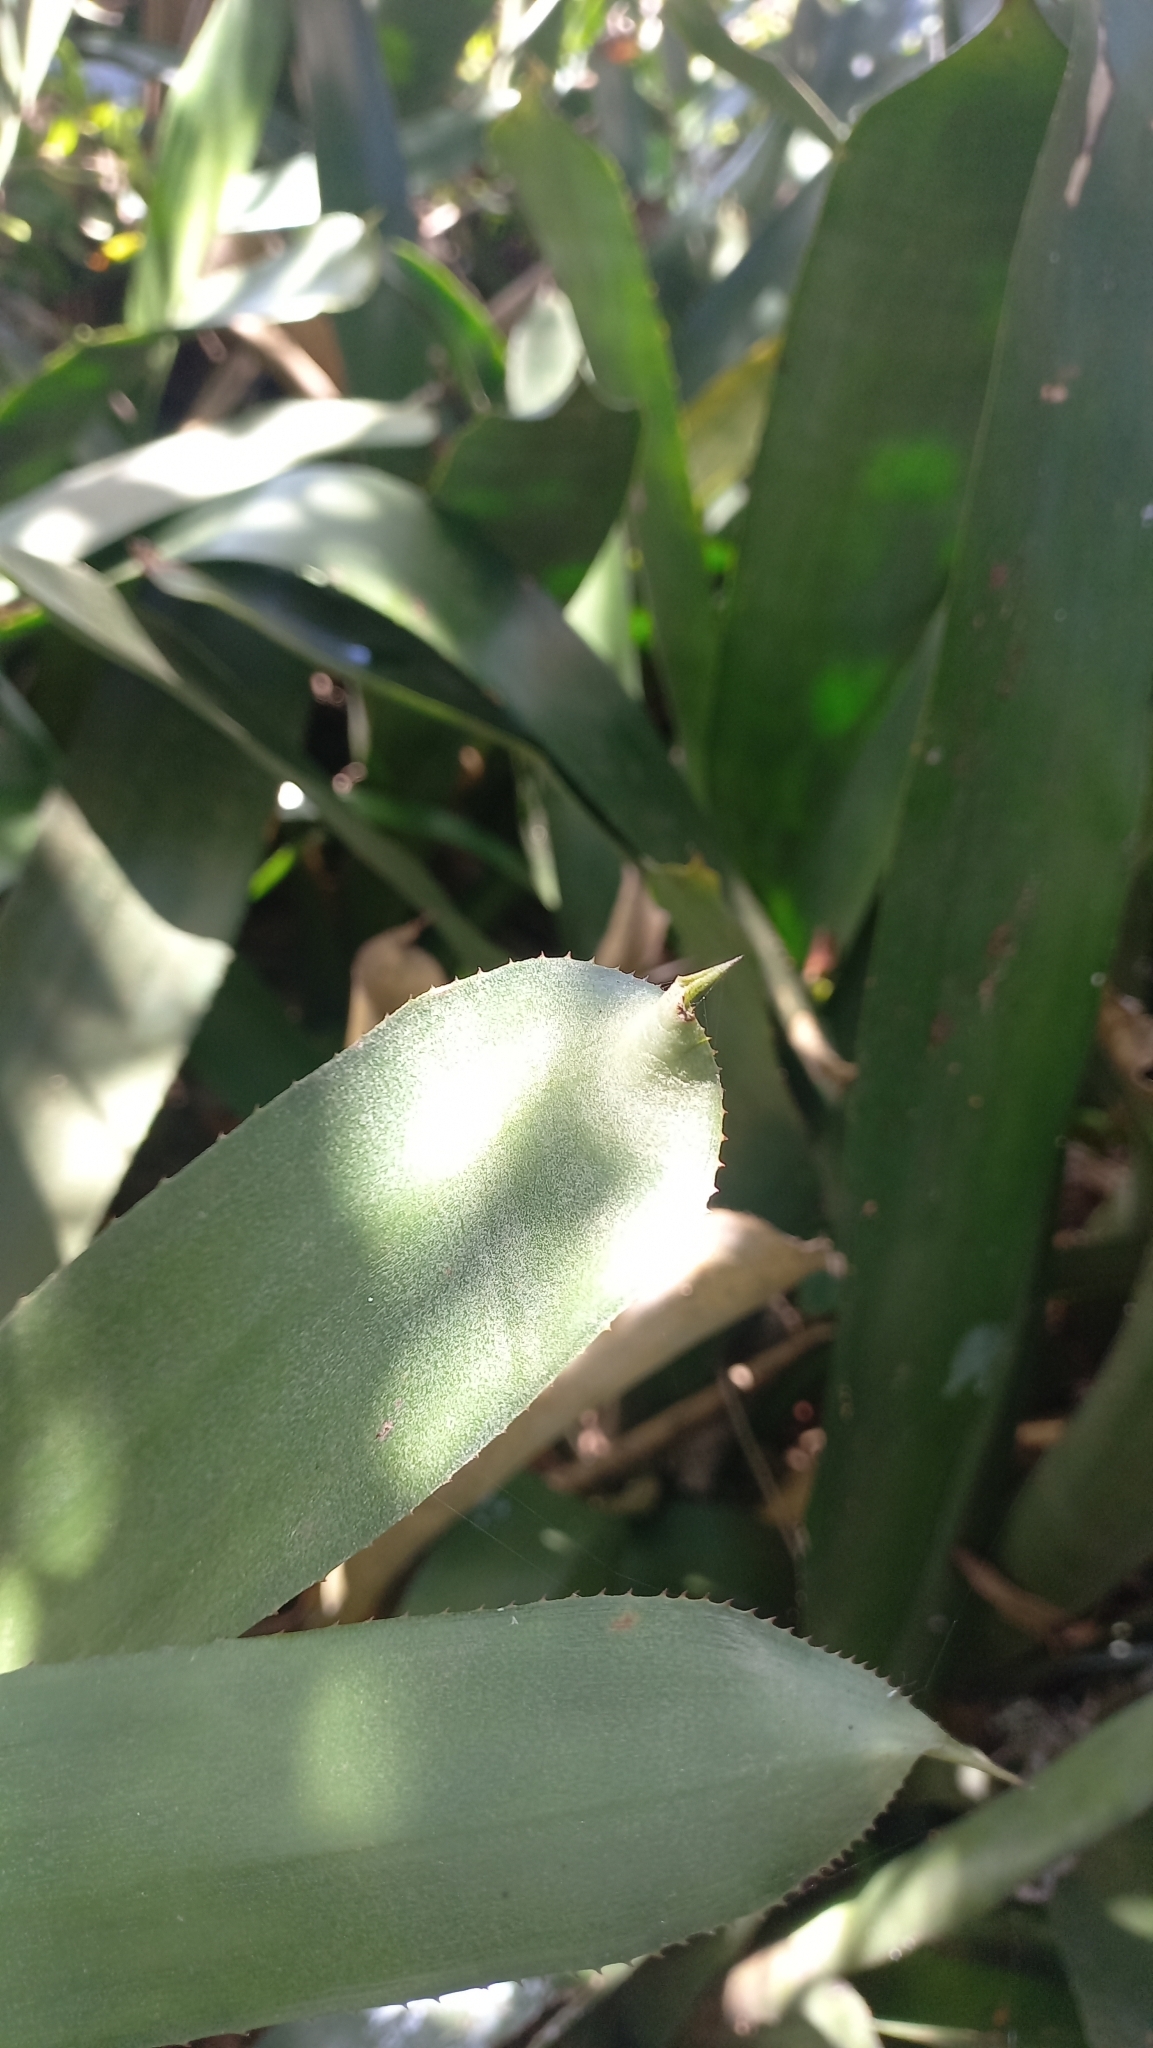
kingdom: Plantae
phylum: Tracheophyta
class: Liliopsida
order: Poales
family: Bromeliaceae
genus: Aechmea
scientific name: Aechmea kertesziae
